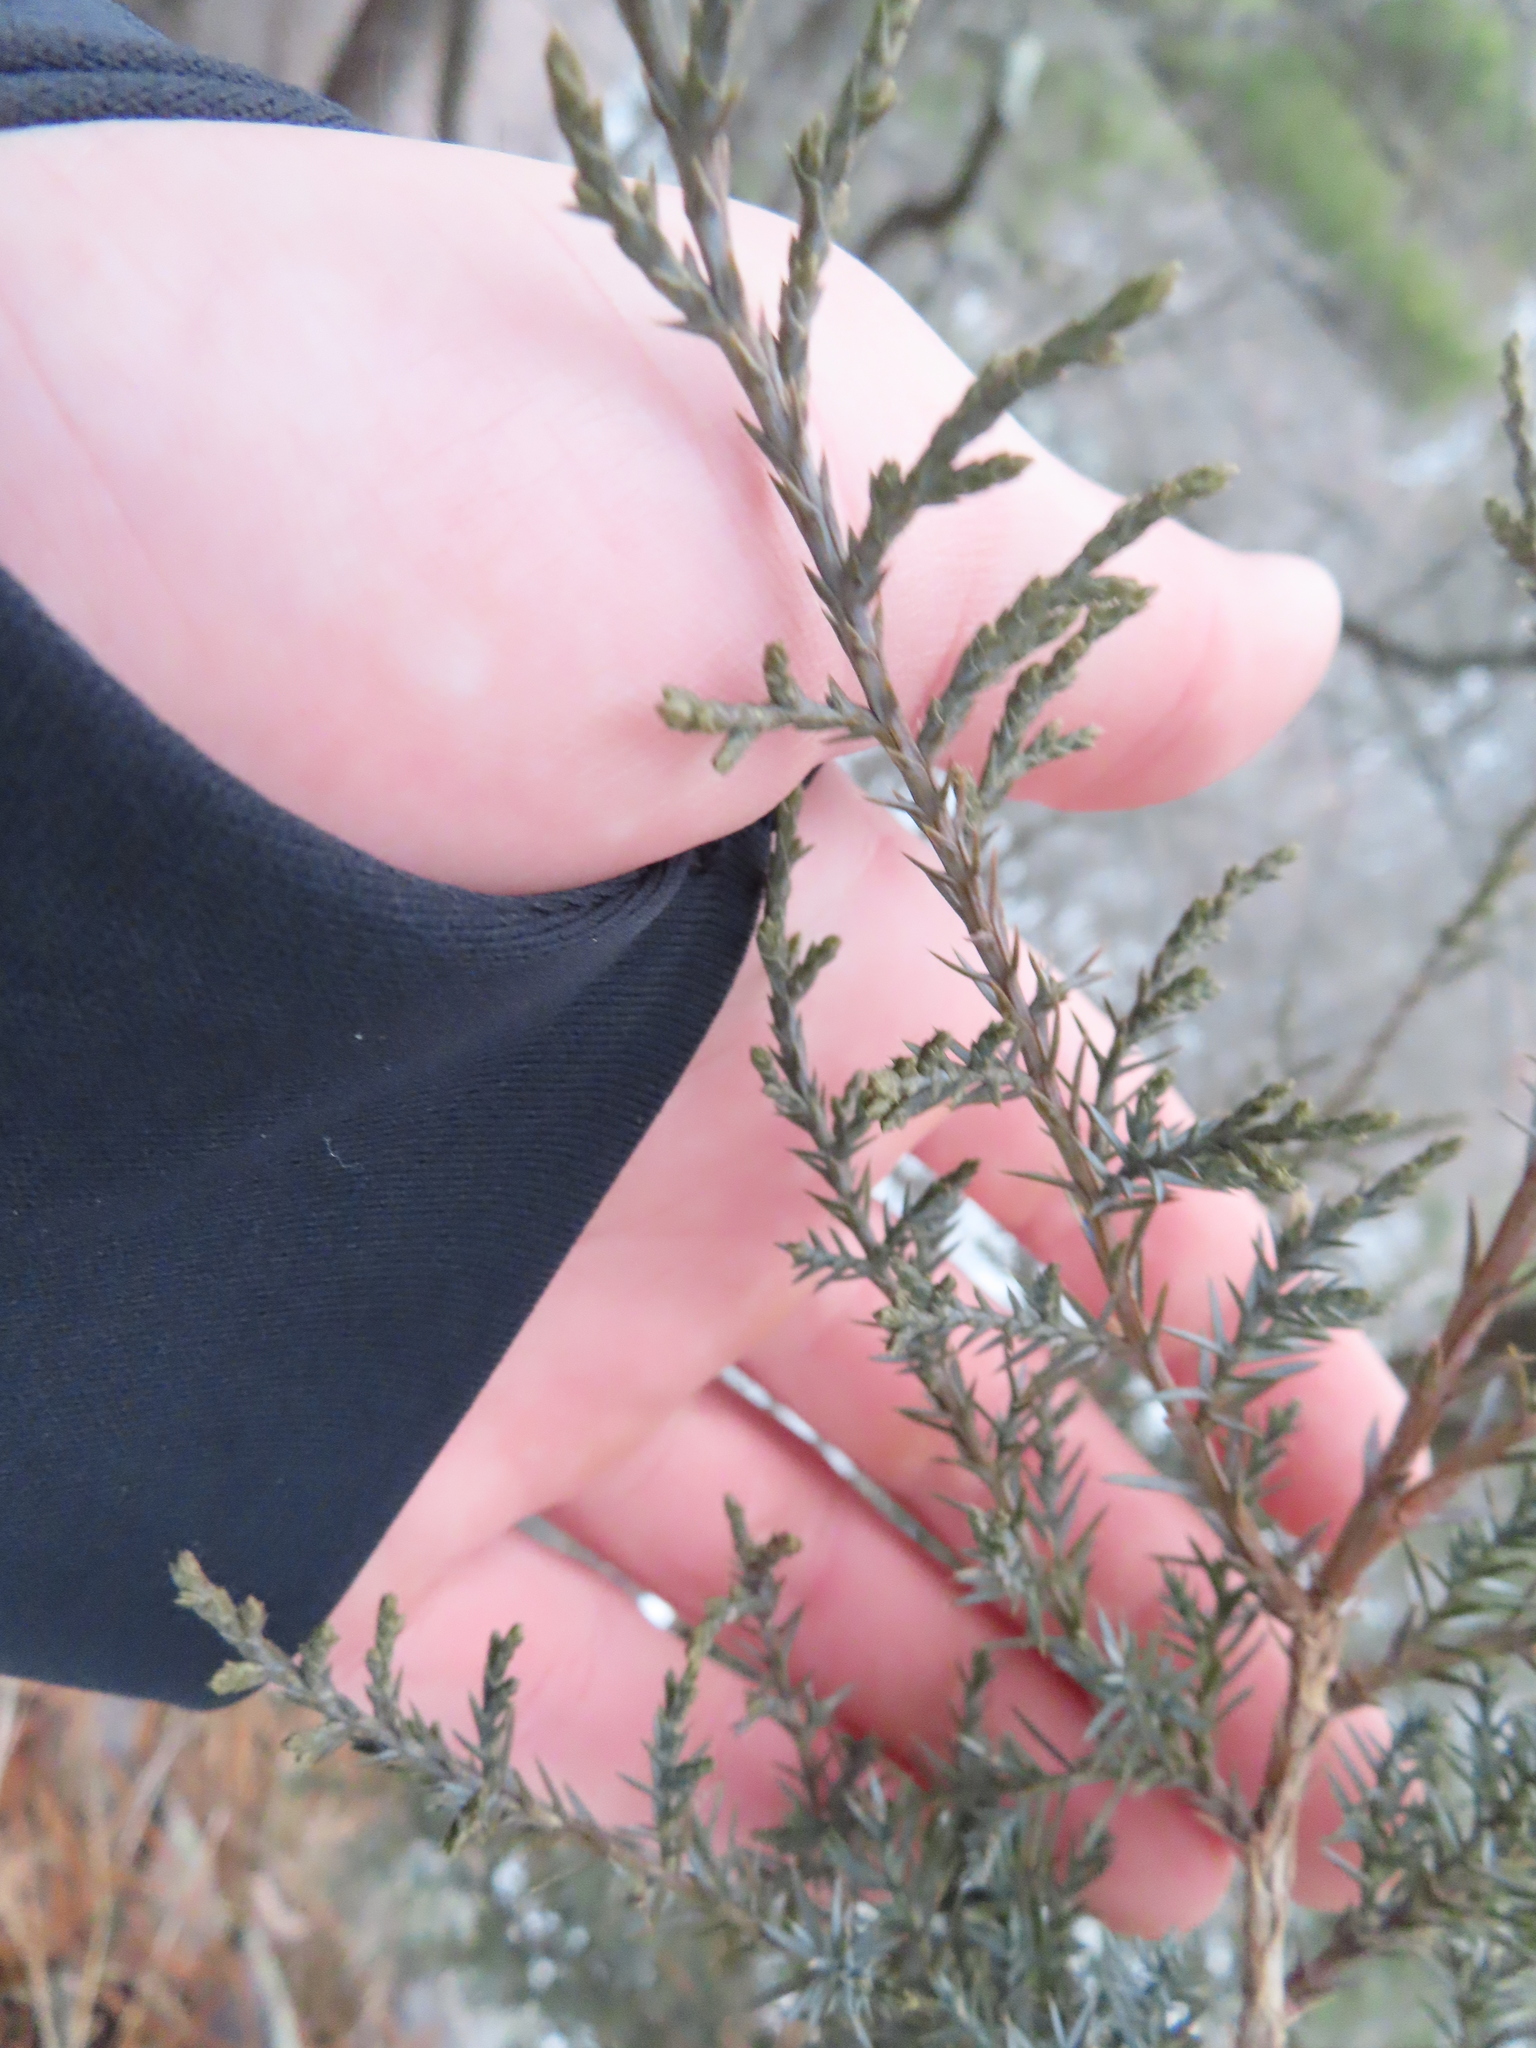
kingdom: Plantae
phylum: Tracheophyta
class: Pinopsida
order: Pinales
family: Cupressaceae
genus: Juniperus
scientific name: Juniperus virginiana
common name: Red juniper
